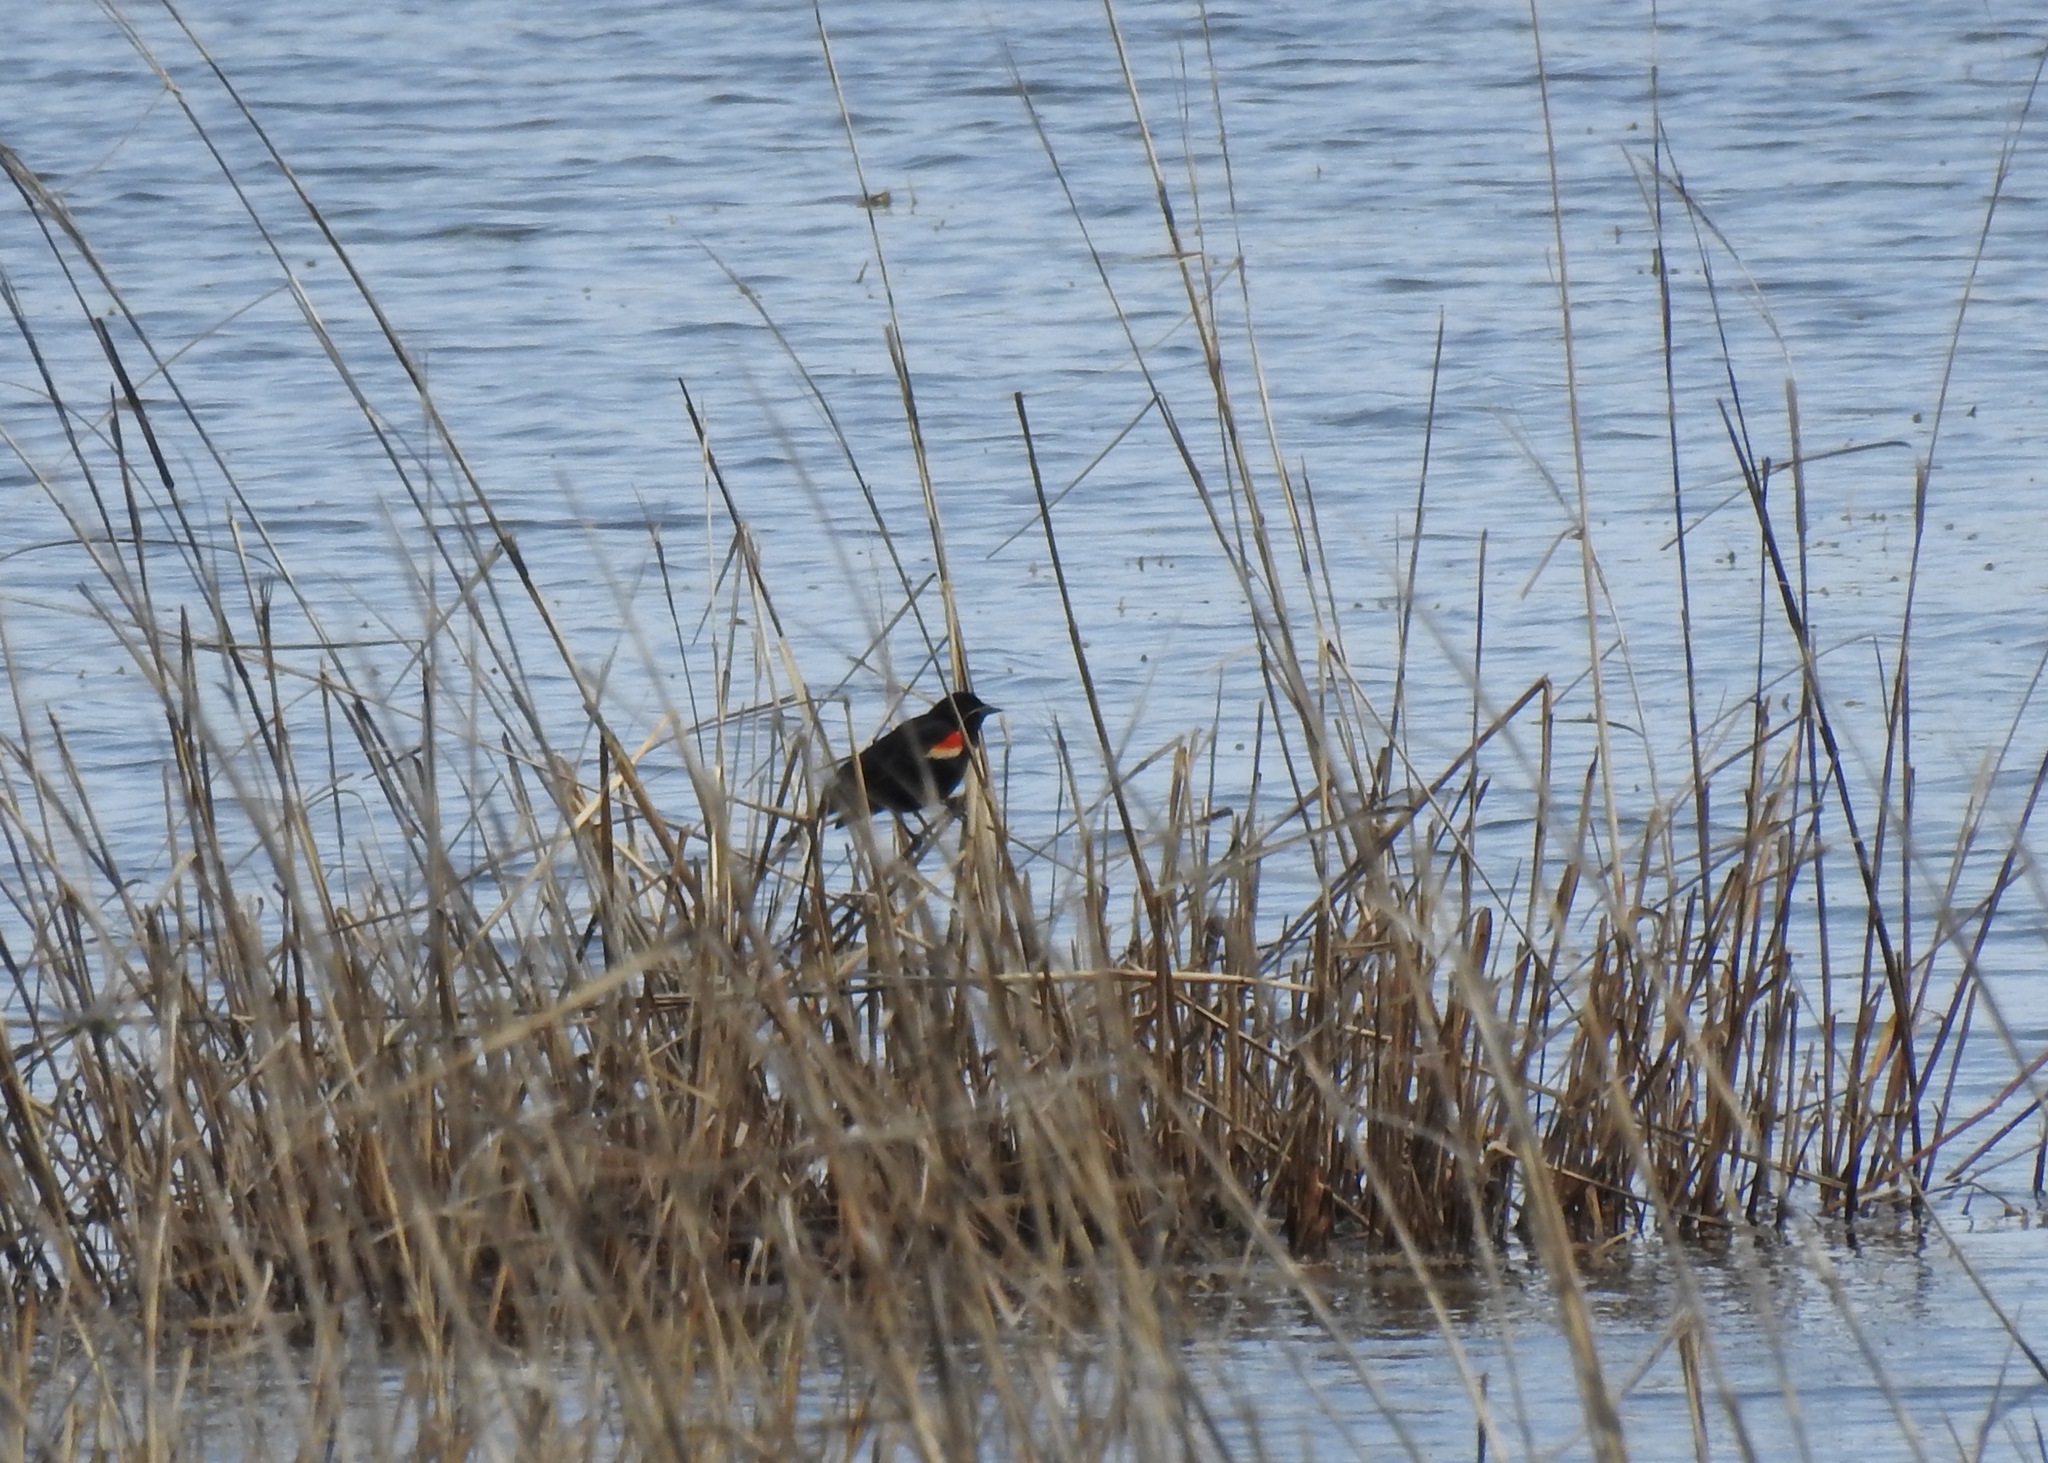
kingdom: Animalia
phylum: Chordata
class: Aves
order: Passeriformes
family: Icteridae
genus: Agelaius
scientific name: Agelaius phoeniceus
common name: Red-winged blackbird
